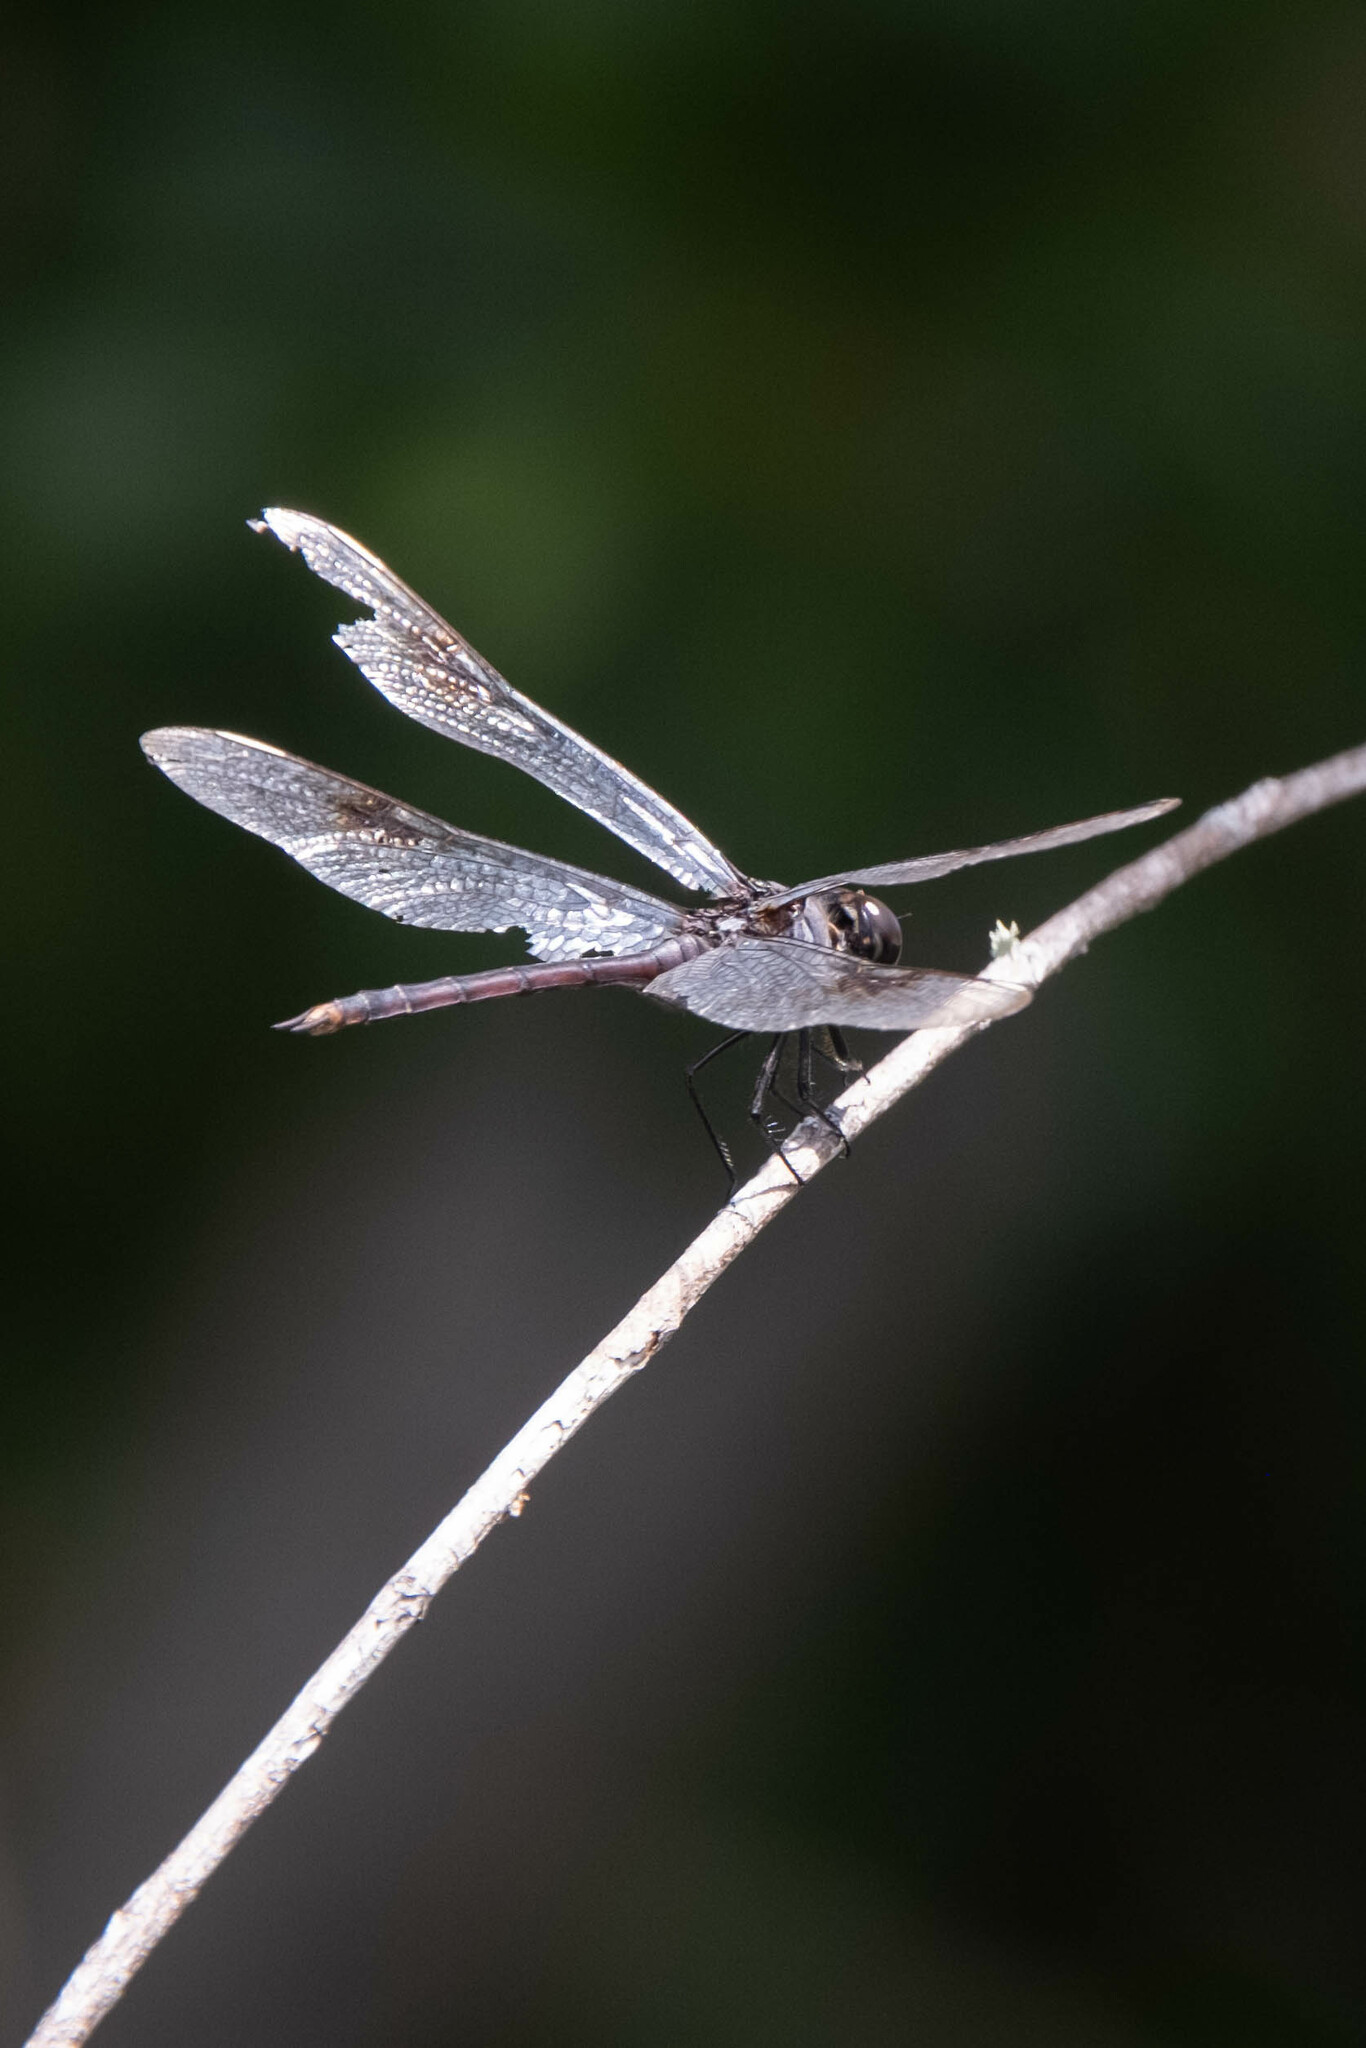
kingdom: Animalia
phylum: Arthropoda
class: Insecta
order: Odonata
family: Libellulidae
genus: Brachymesia
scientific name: Brachymesia gravida
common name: Four-spotted pennant
